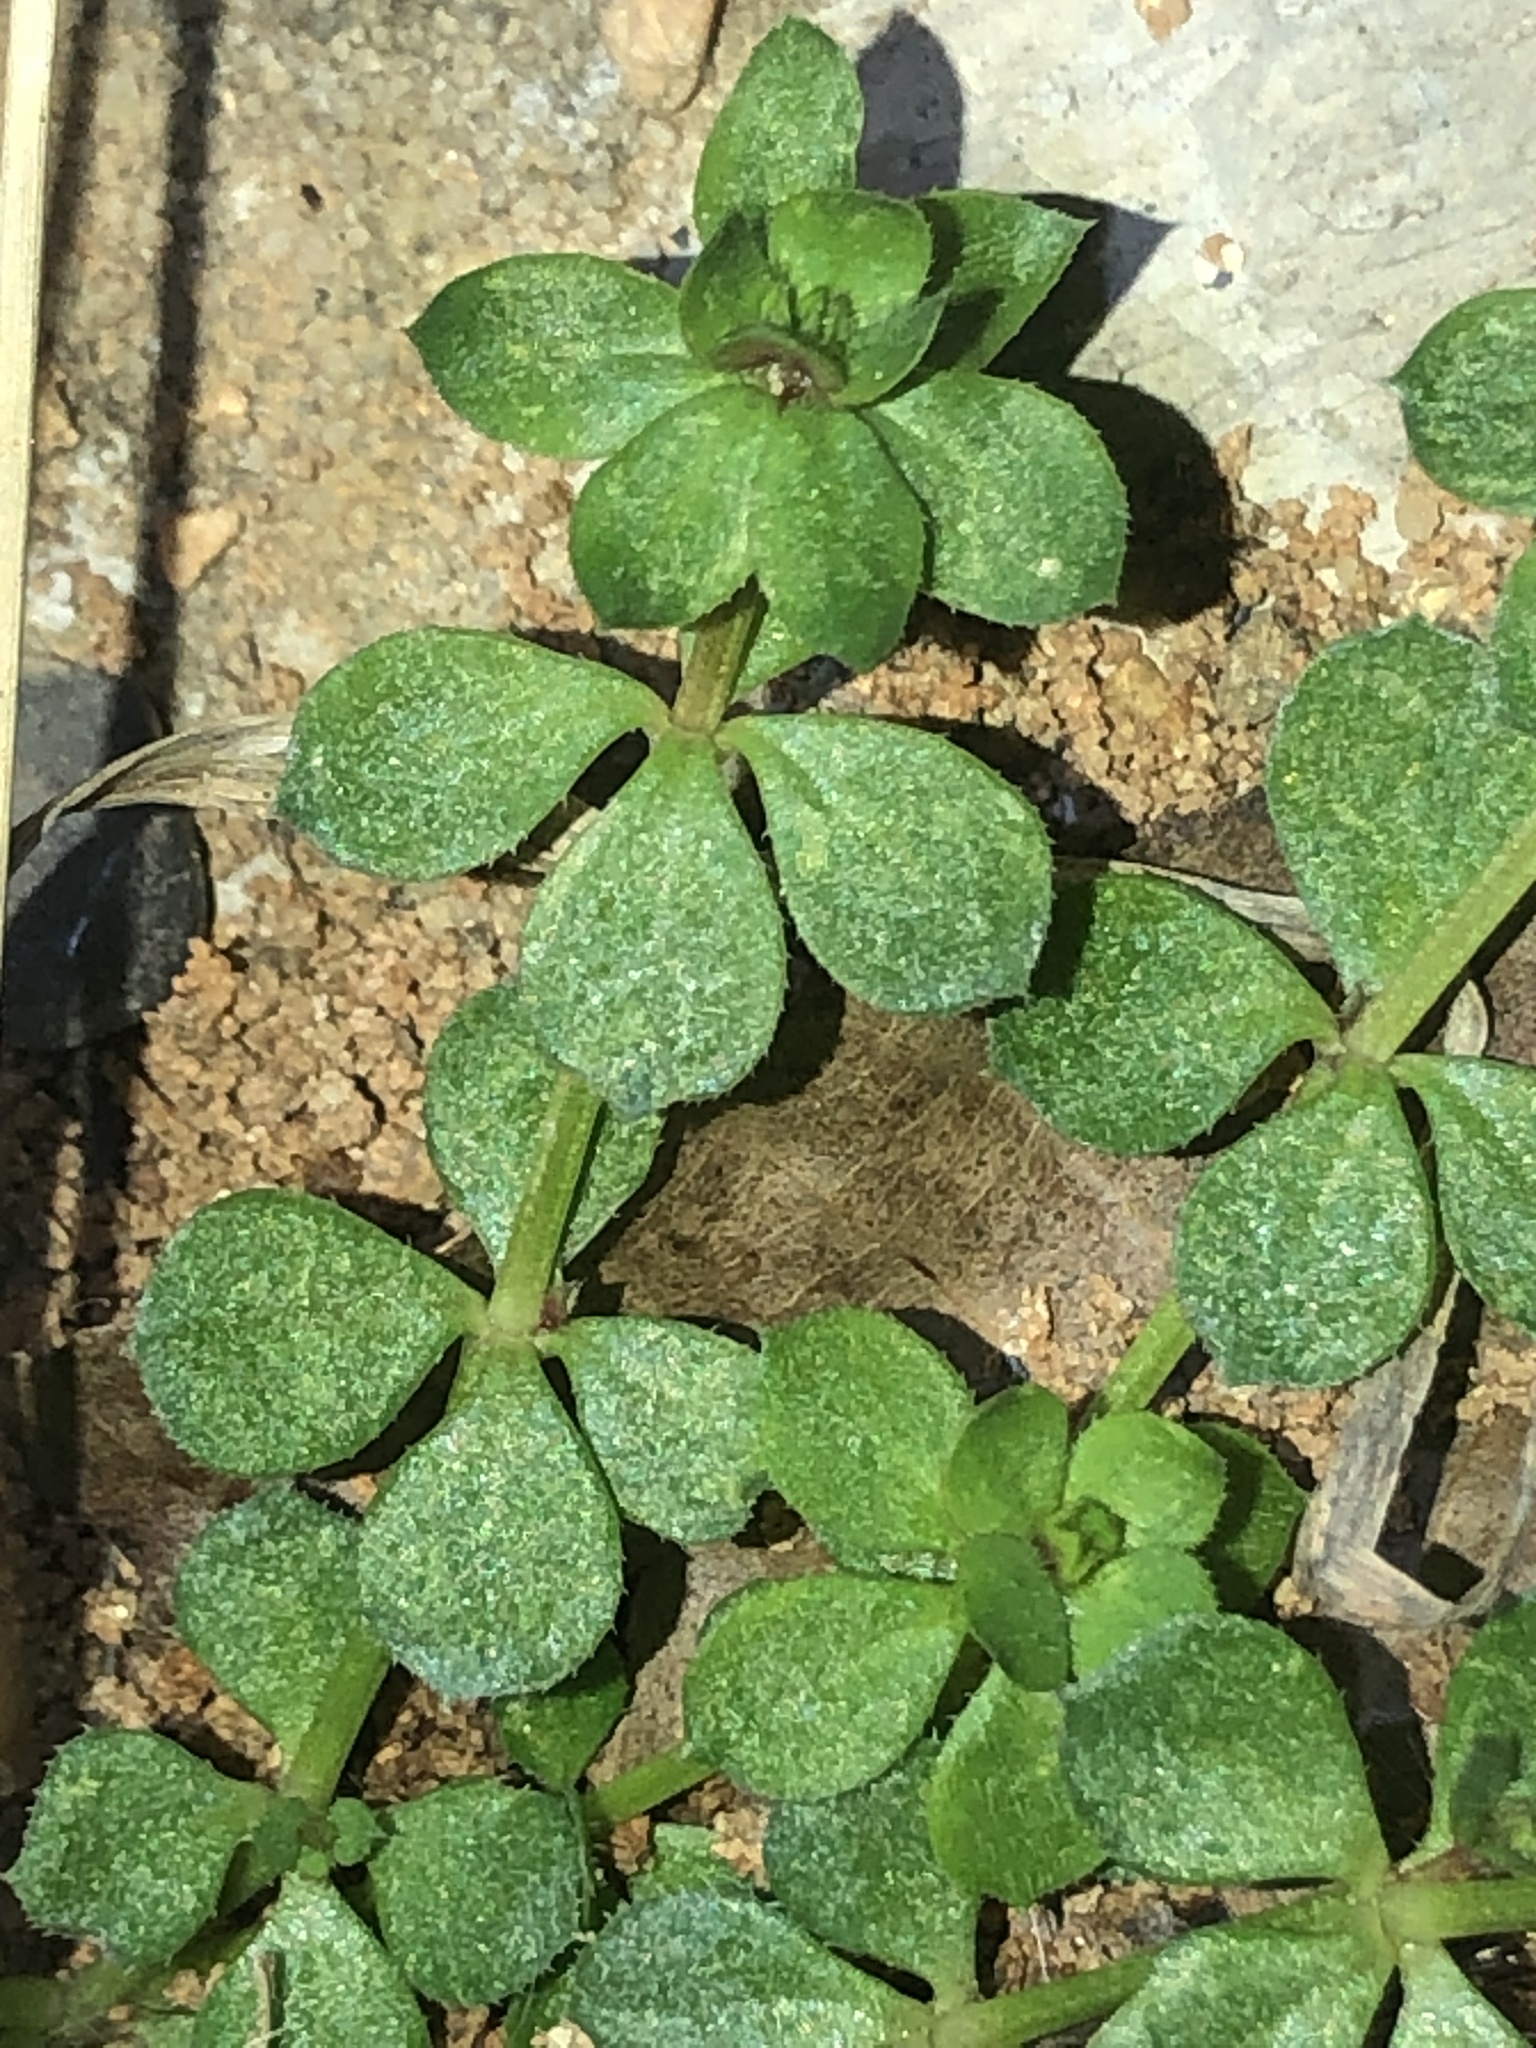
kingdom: Plantae
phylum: Tracheophyta
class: Magnoliopsida
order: Gentianales
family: Rubiaceae
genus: Sherardia
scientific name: Sherardia arvensis
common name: Field madder
